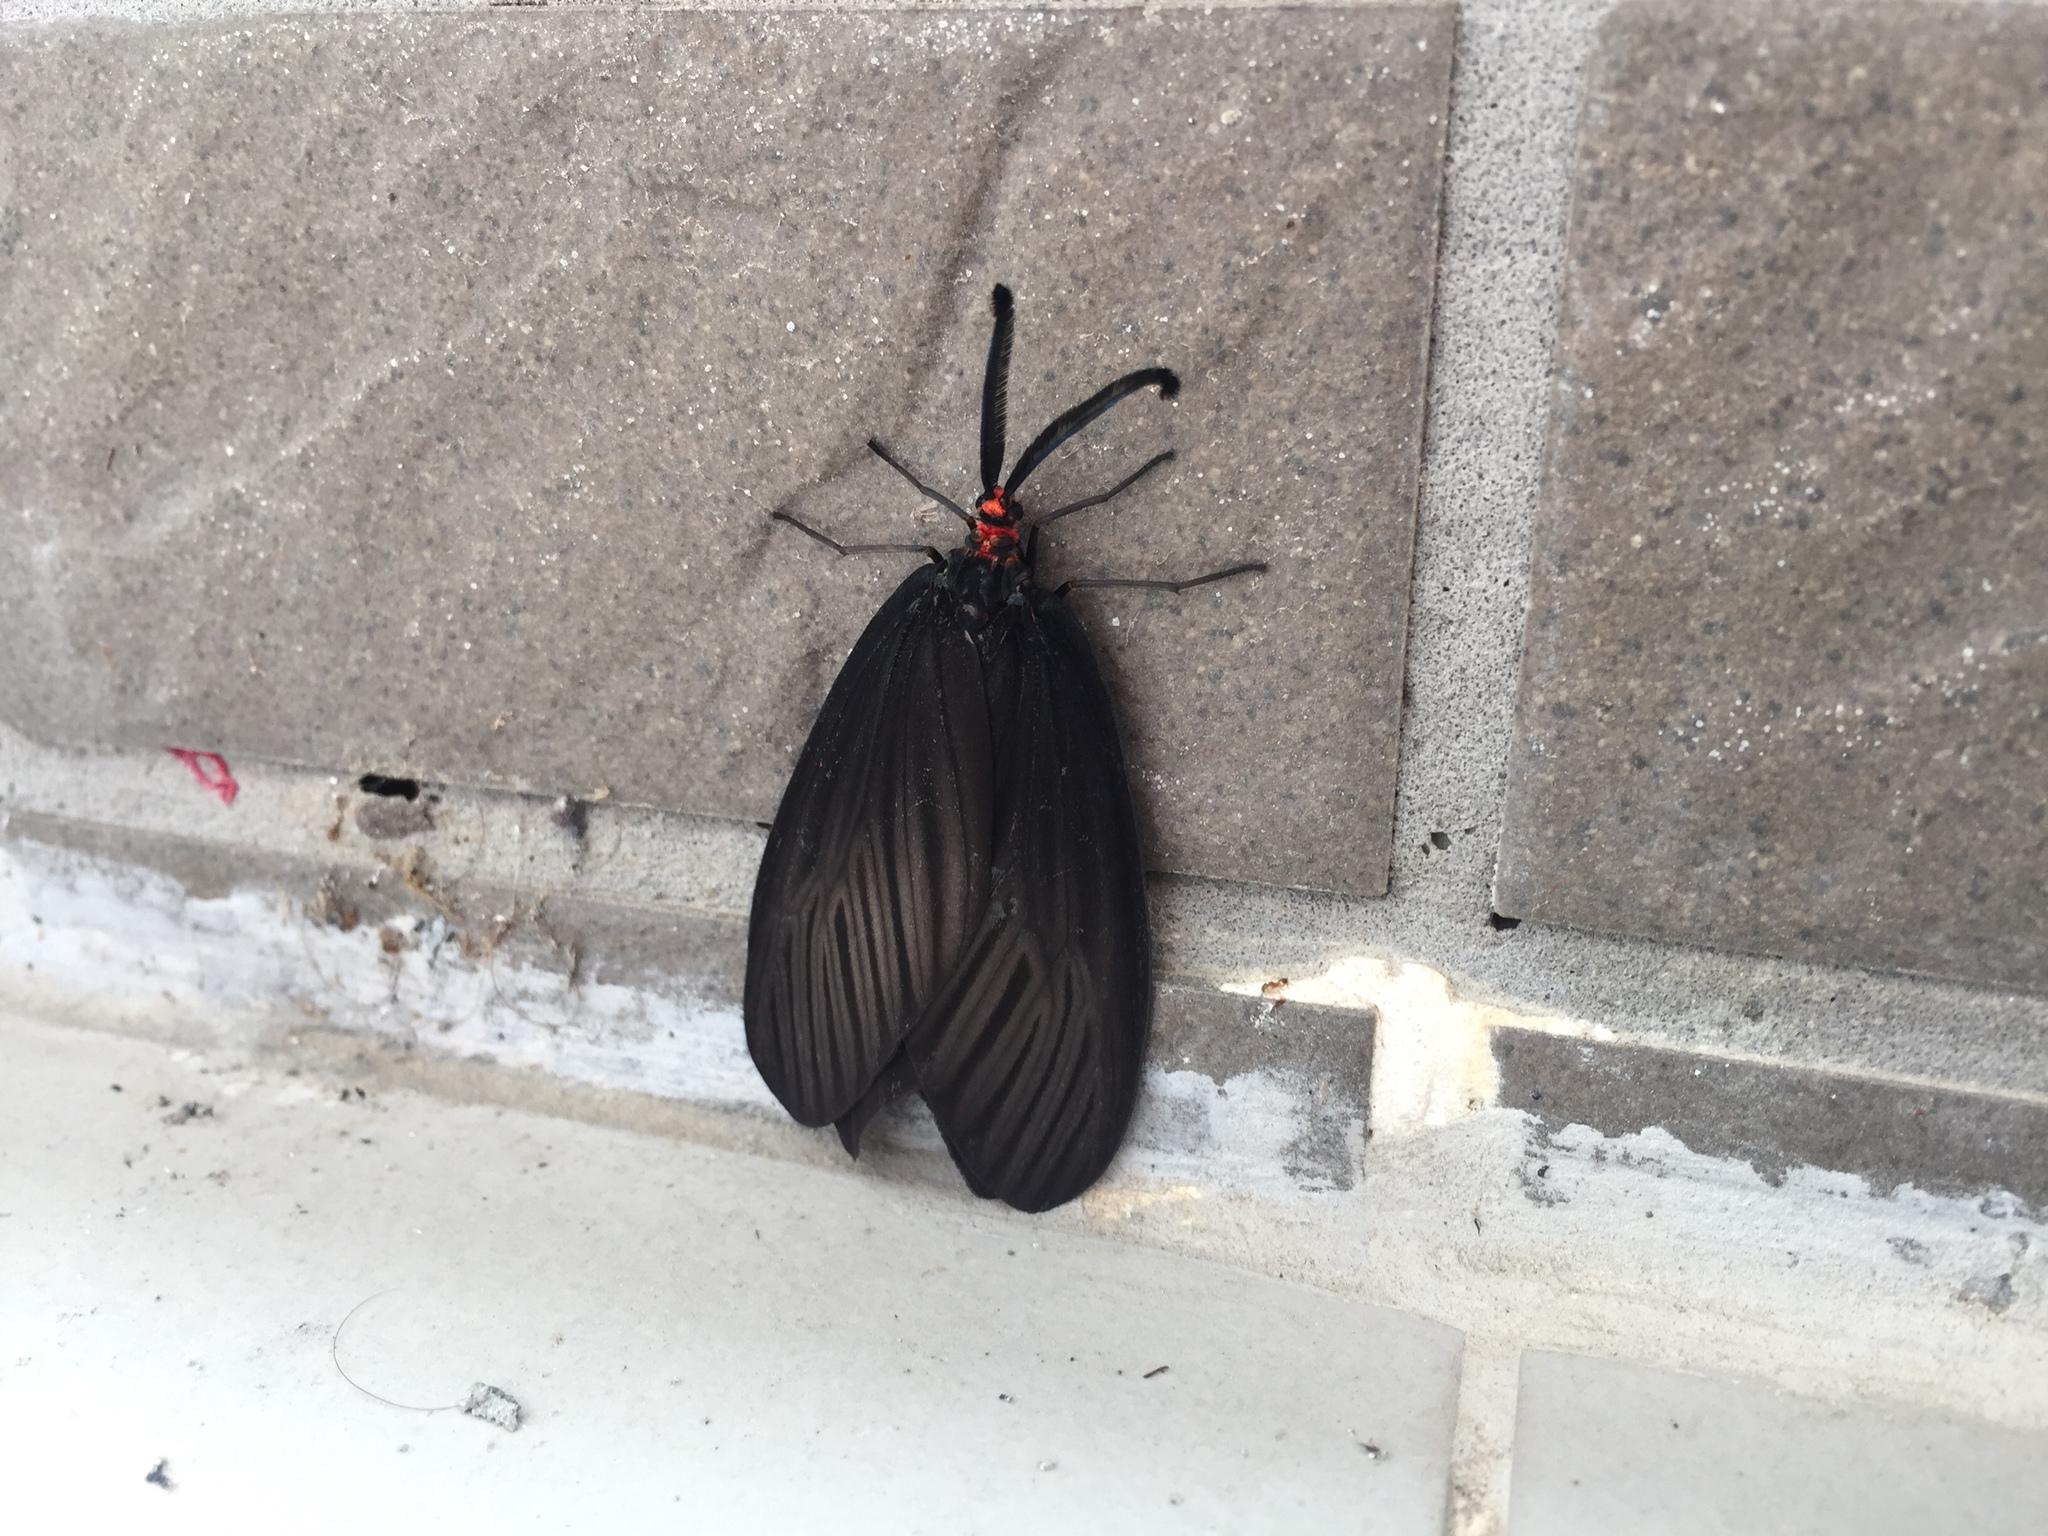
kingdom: Animalia
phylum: Arthropoda
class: Insecta
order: Lepidoptera
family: Zygaenidae
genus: Histia
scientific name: Histia flabellicornis
